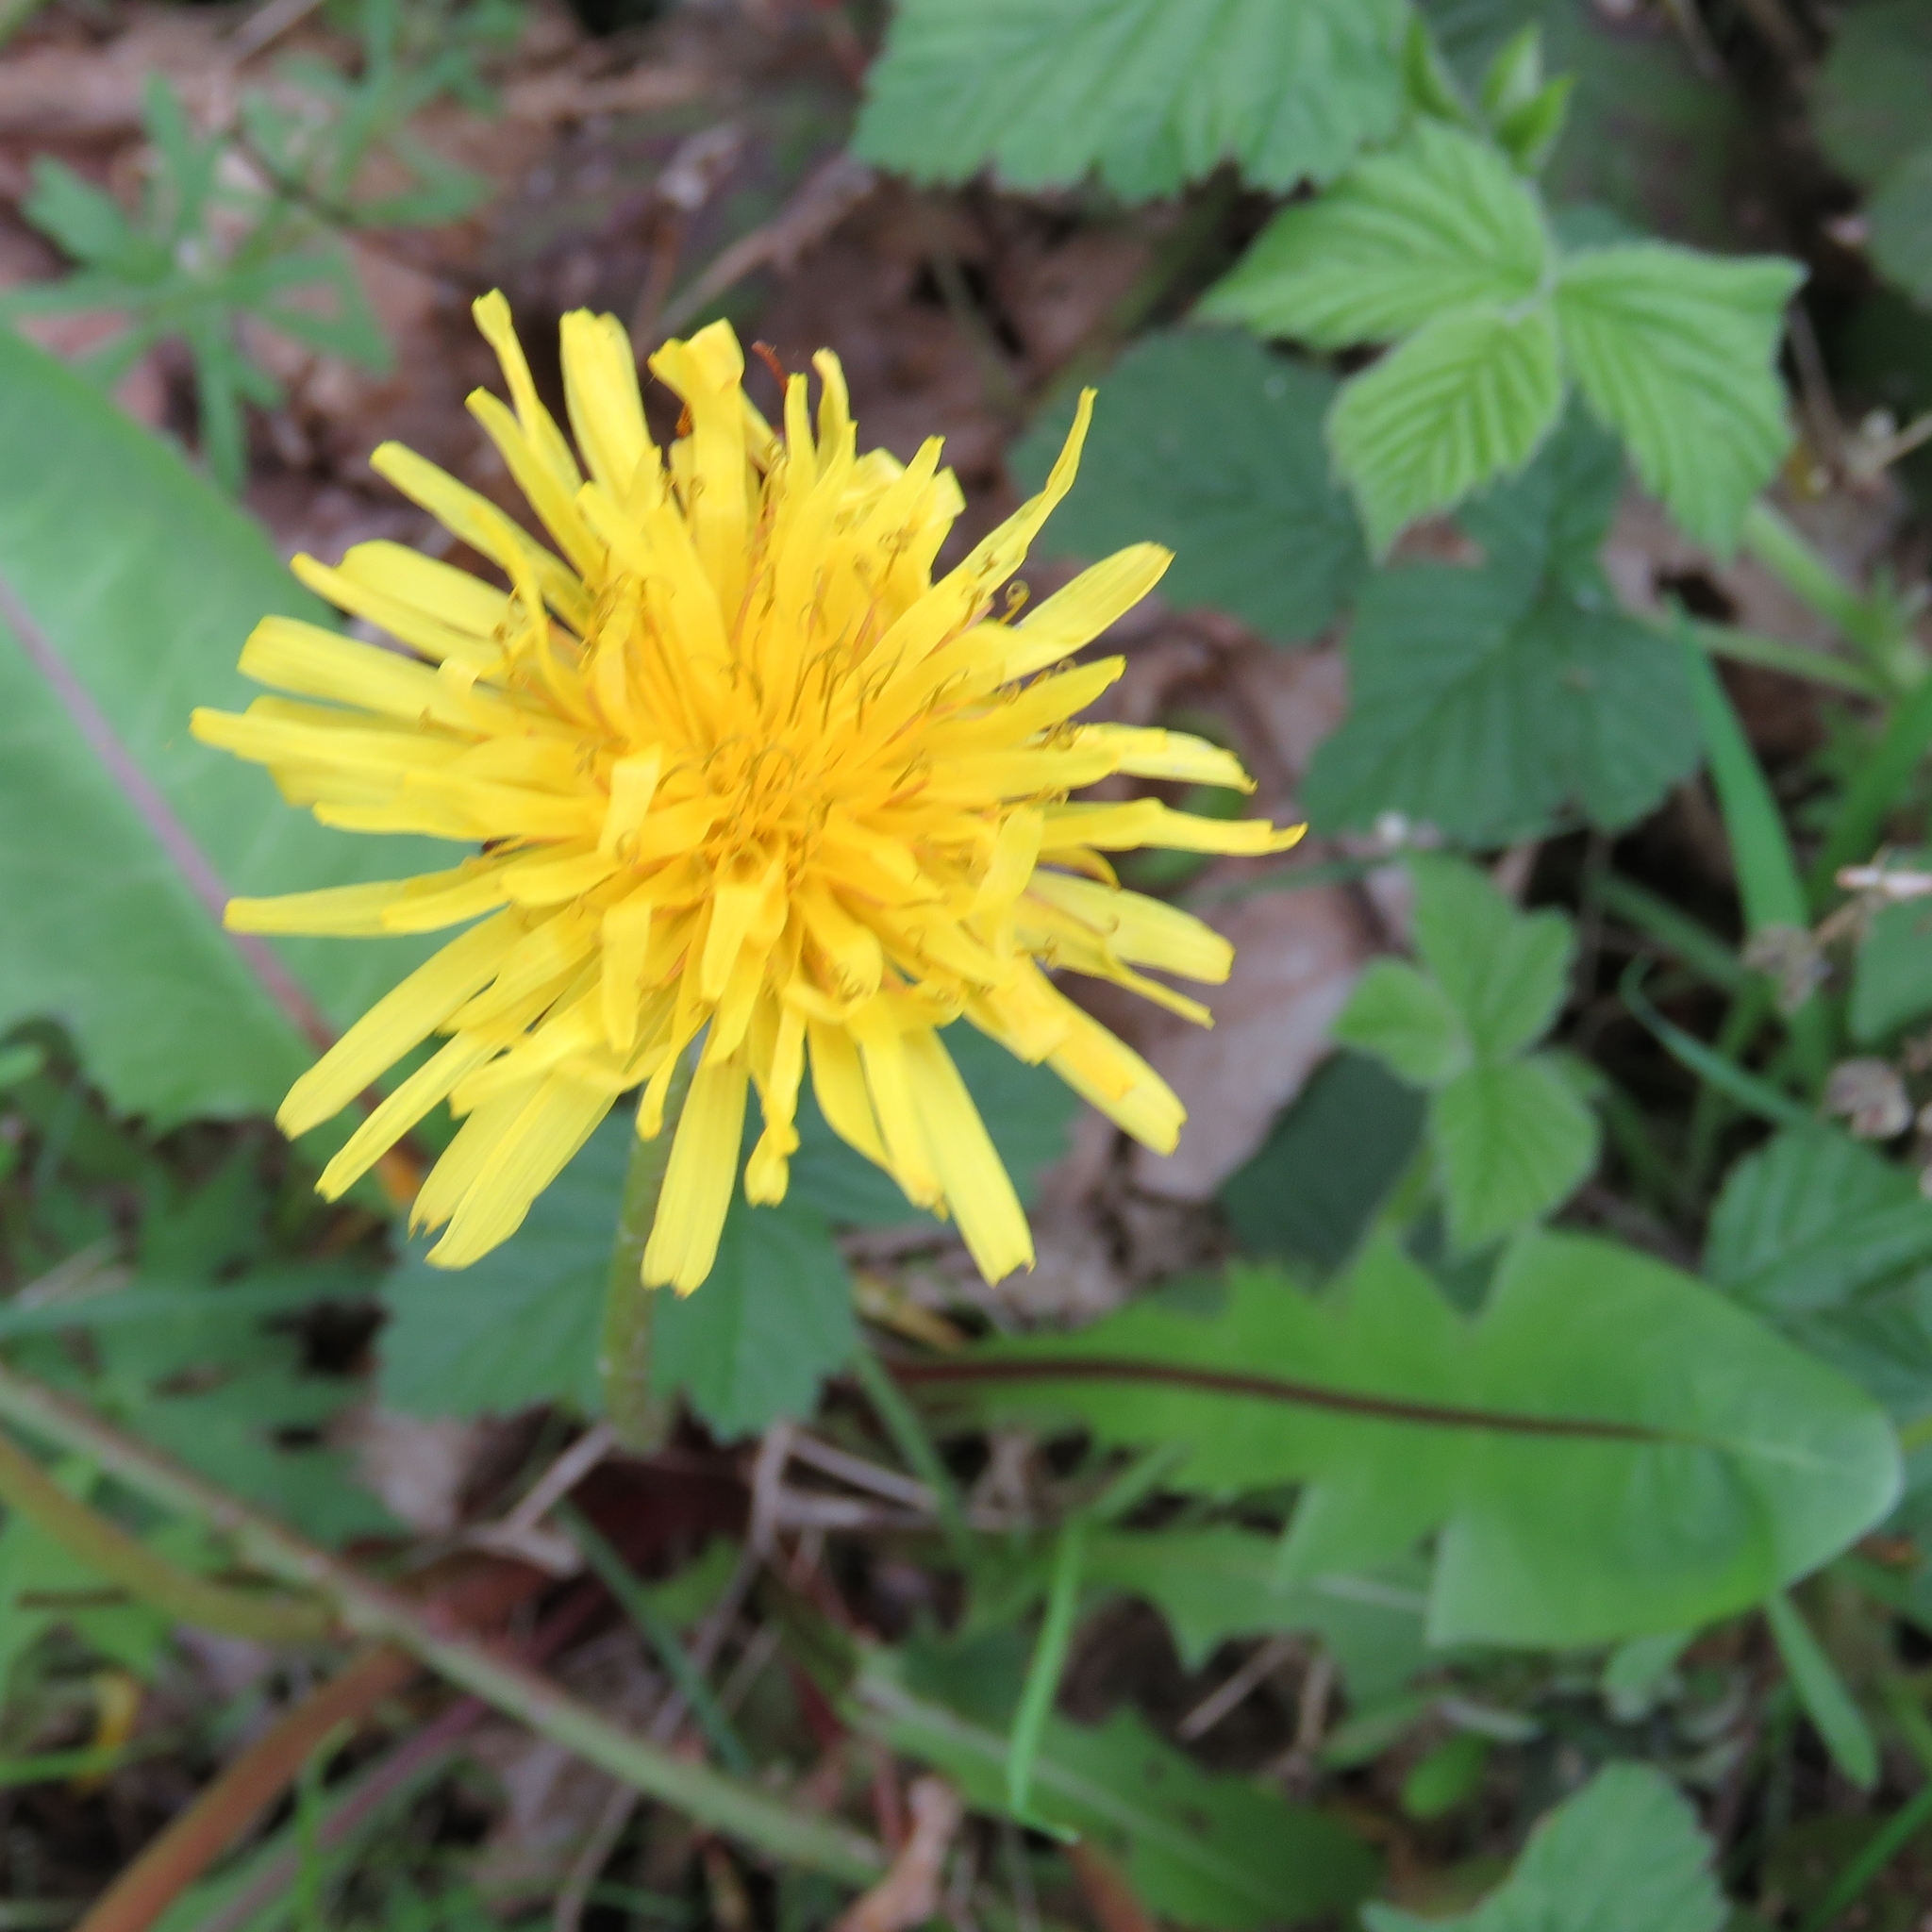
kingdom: Plantae
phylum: Tracheophyta
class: Magnoliopsida
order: Asterales
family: Asteraceae
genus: Taraxacum
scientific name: Taraxacum officinale
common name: Common dandelion
